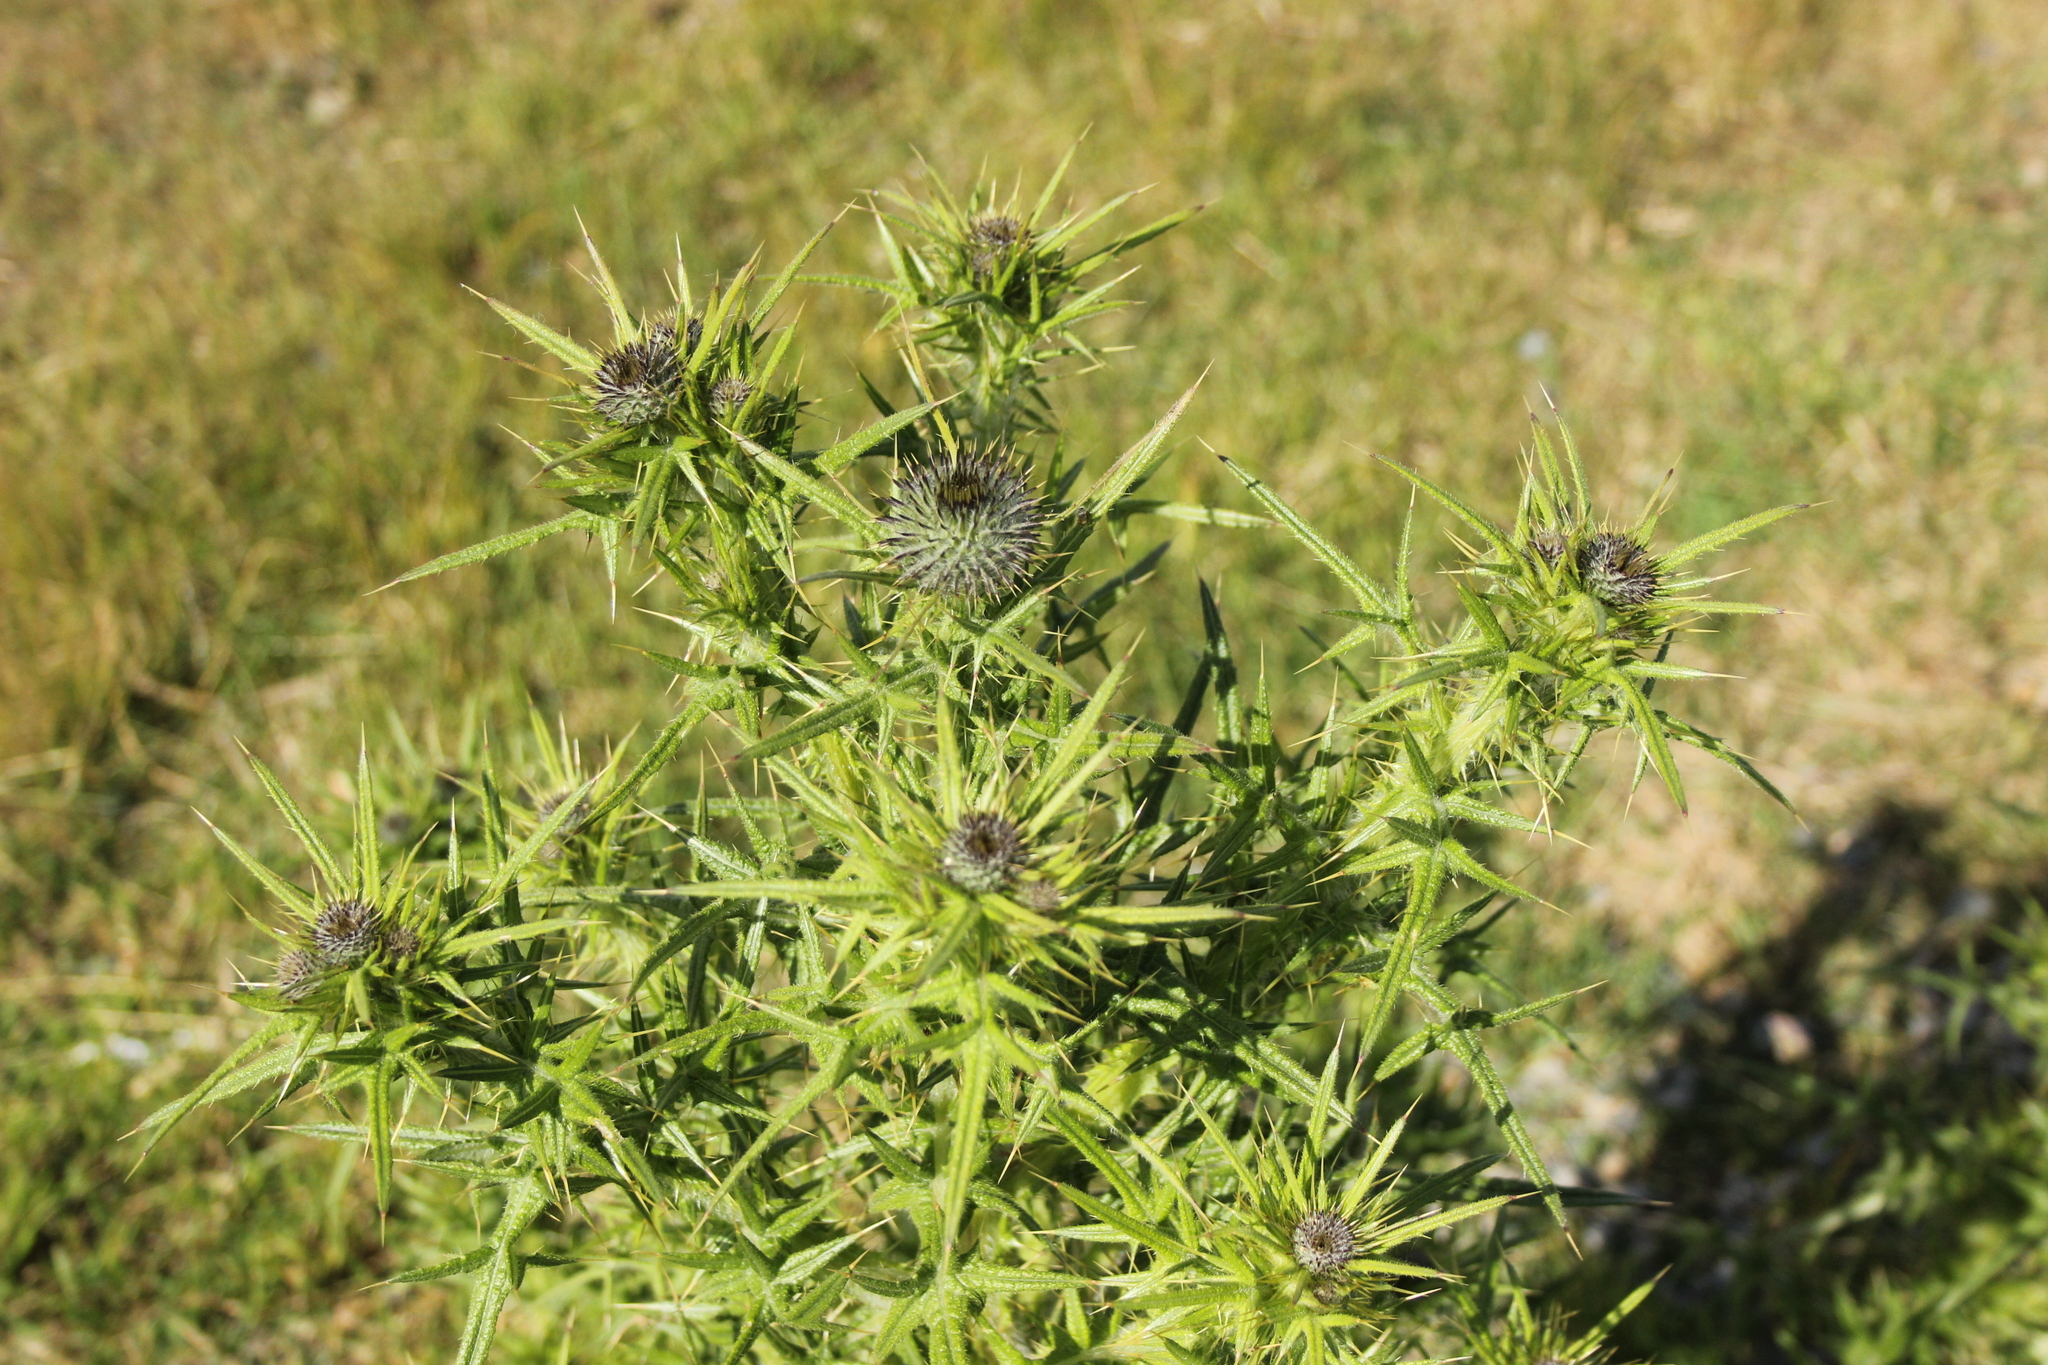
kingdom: Plantae
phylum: Tracheophyta
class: Magnoliopsida
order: Asterales
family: Asteraceae
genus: Cirsium
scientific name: Cirsium vulgare
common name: Bull thistle
